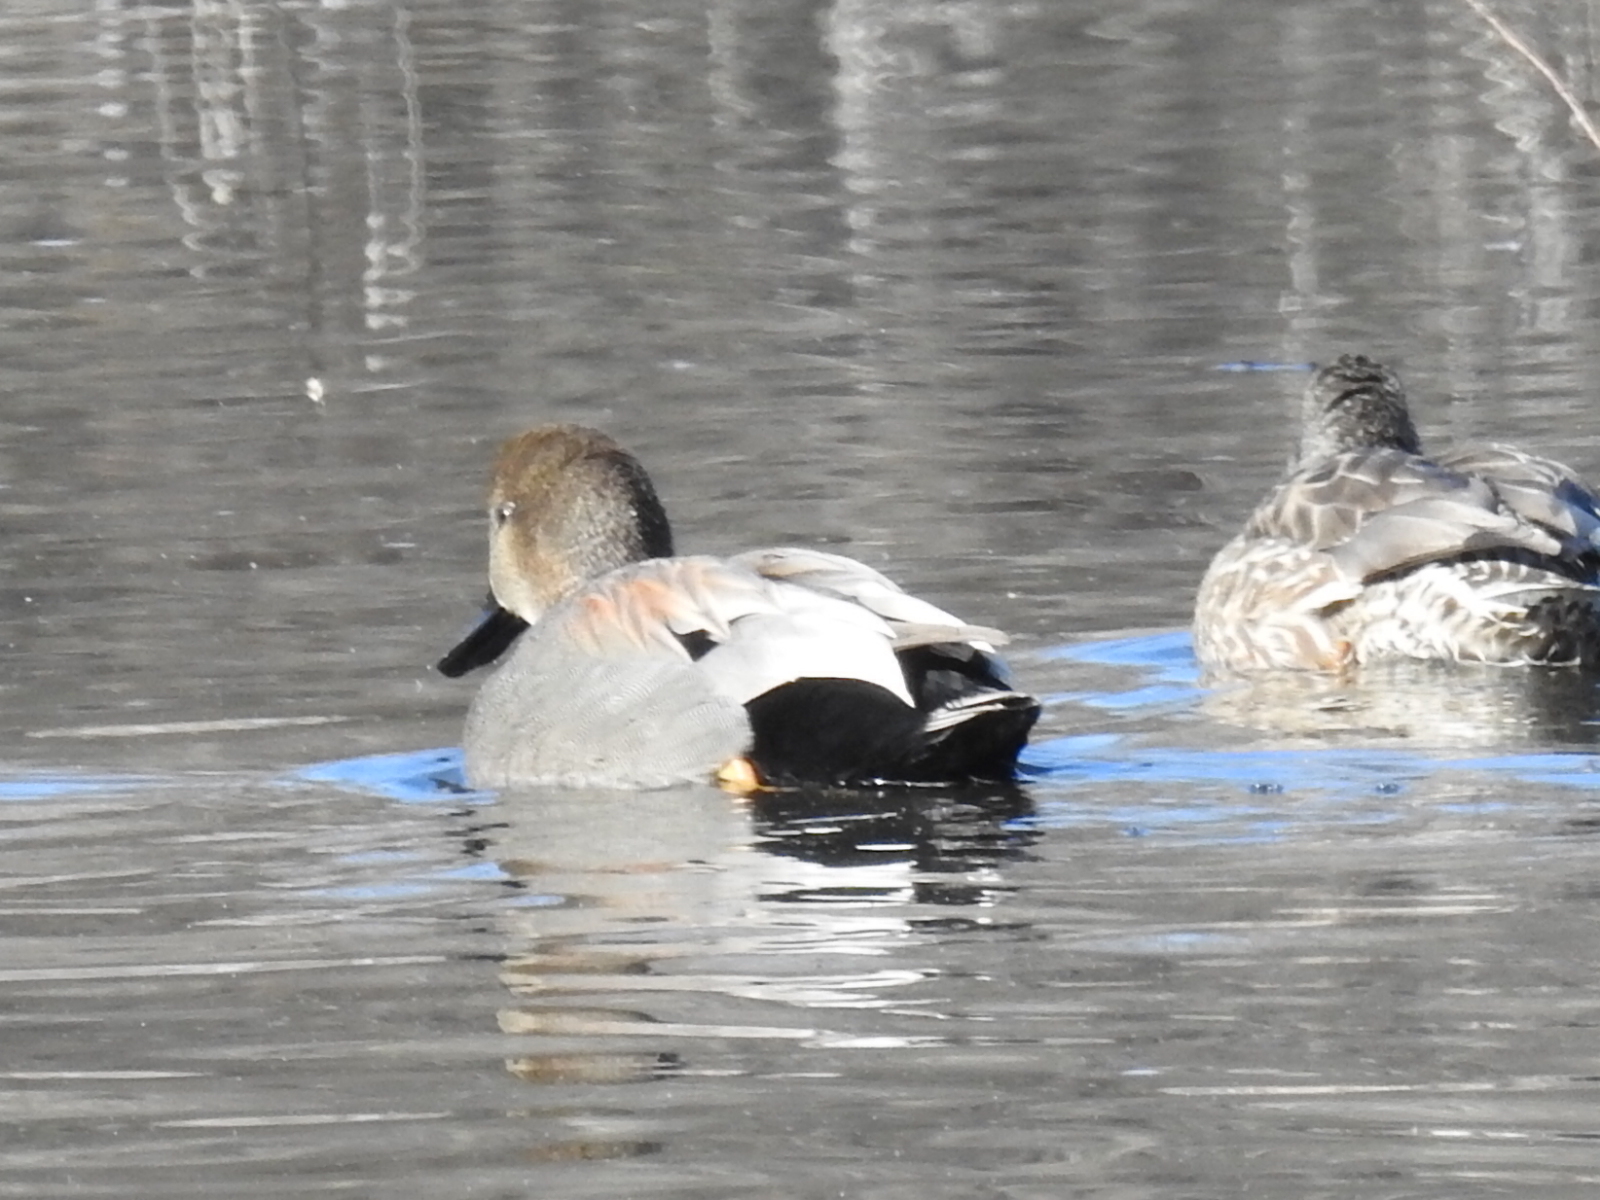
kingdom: Animalia
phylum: Chordata
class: Aves
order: Anseriformes
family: Anatidae
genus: Mareca
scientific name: Mareca strepera
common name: Gadwall
